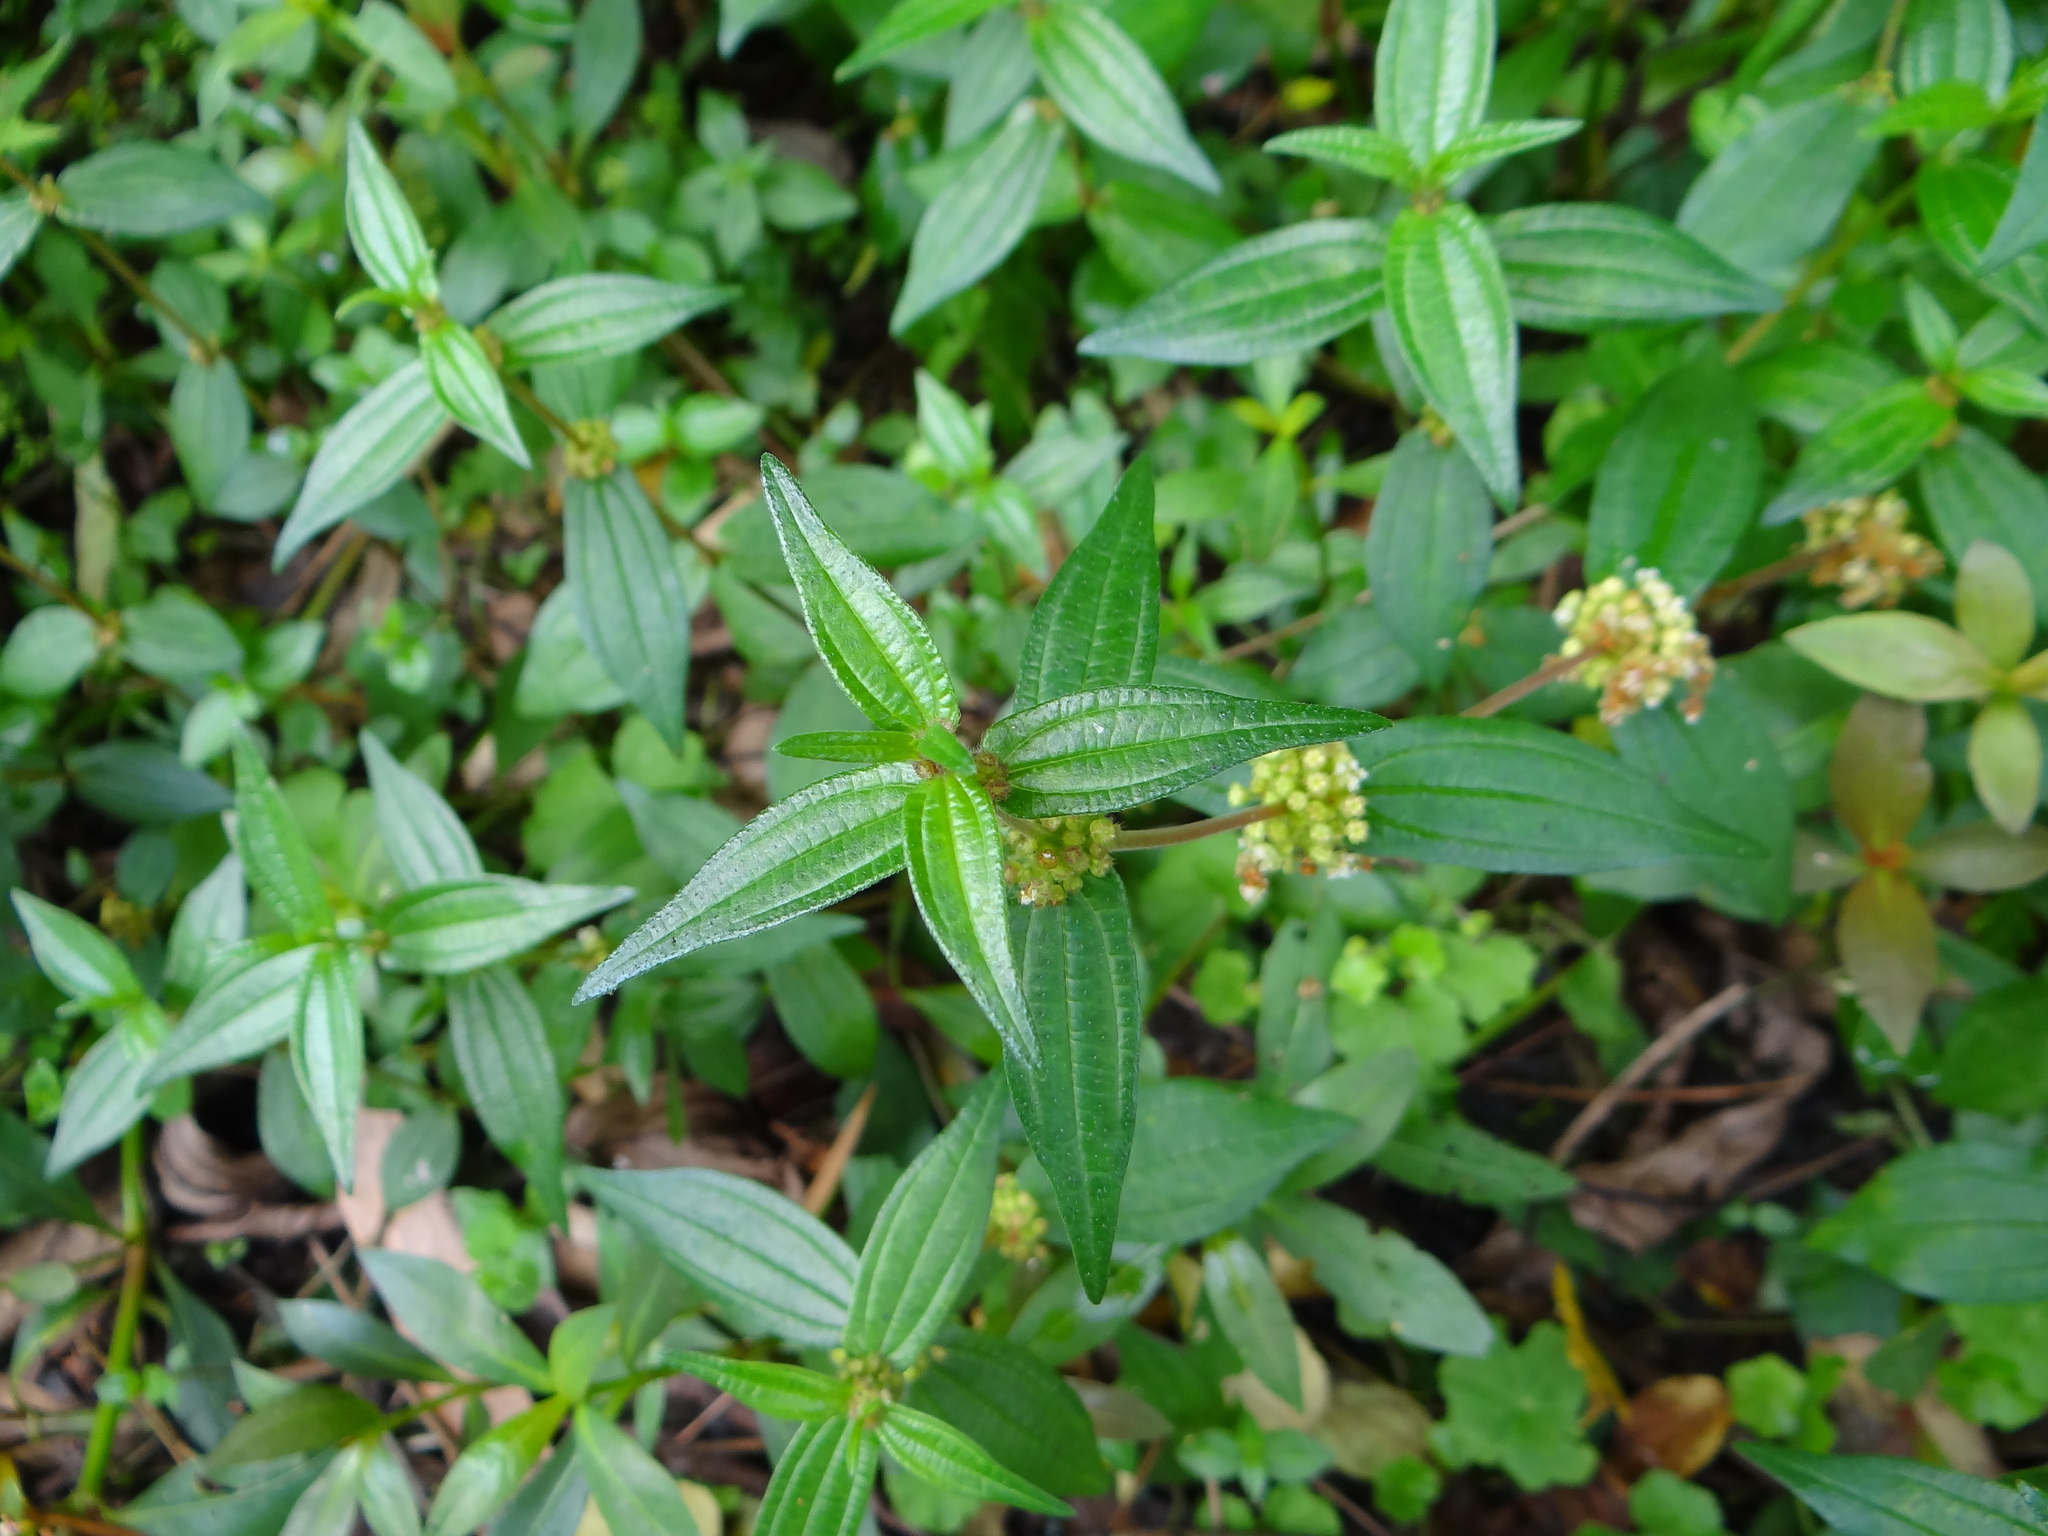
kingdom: Plantae
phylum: Tracheophyta
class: Magnoliopsida
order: Rosales
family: Urticaceae
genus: Gonostegia
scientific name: Gonostegia triandra
